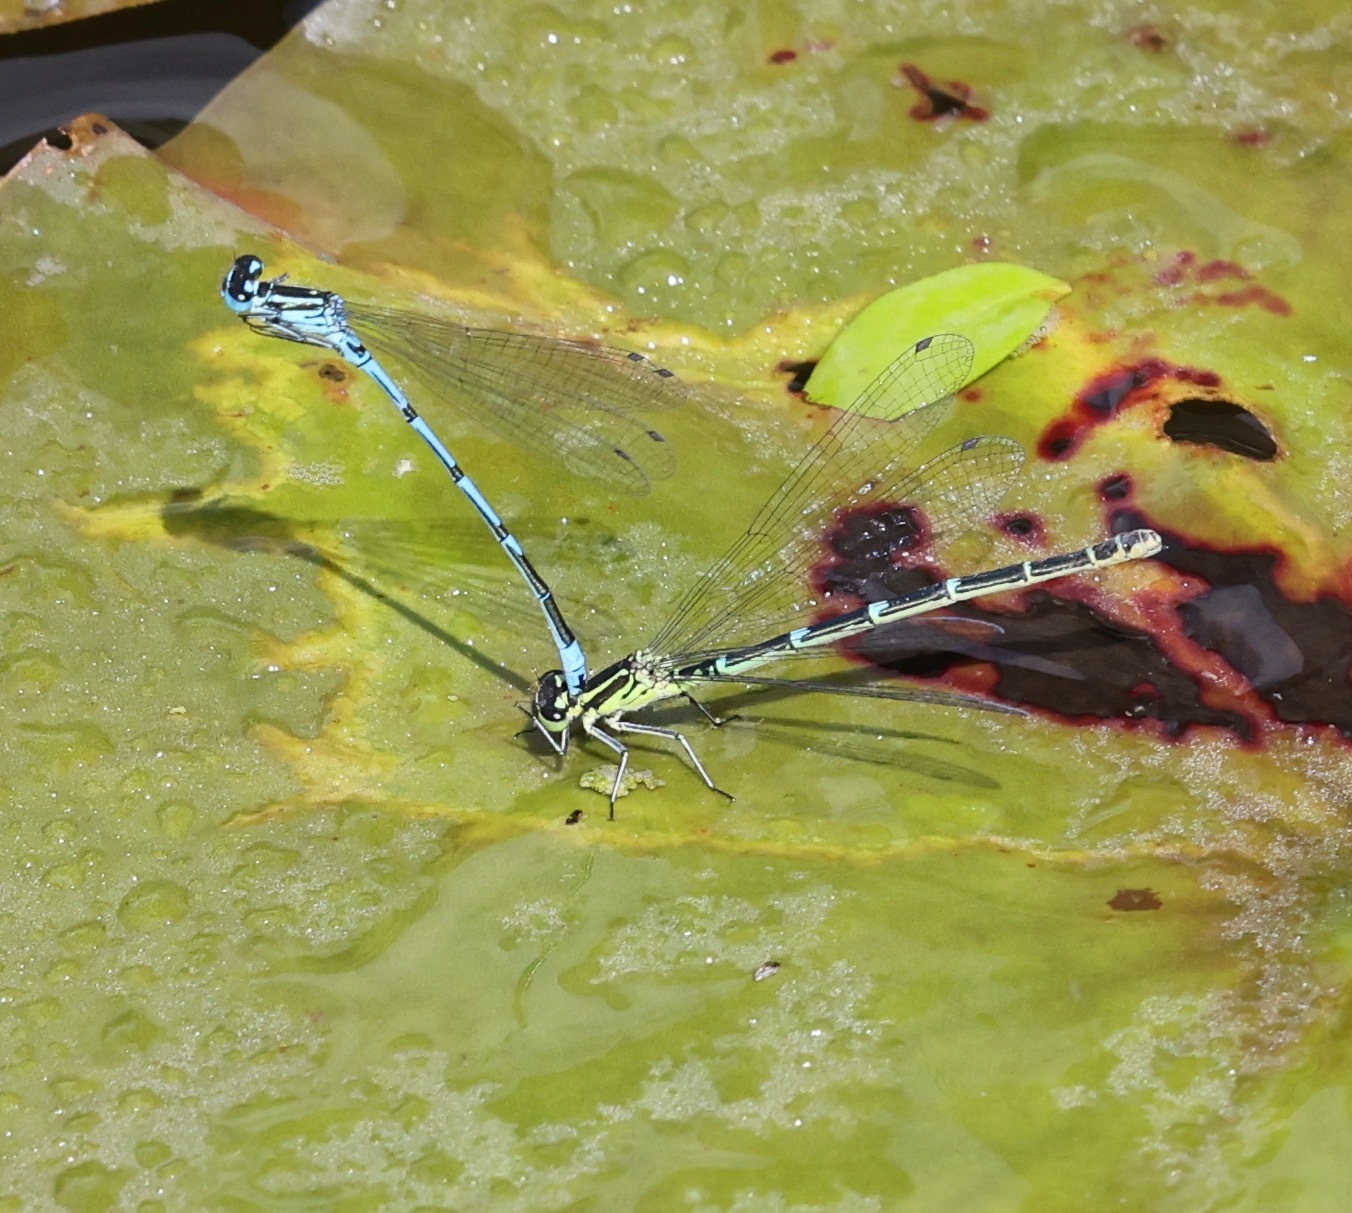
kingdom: Animalia
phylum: Arthropoda
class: Insecta
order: Odonata
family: Coenagrionidae
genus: Coenagrion
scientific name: Coenagrion puella
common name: Azure damselfly
